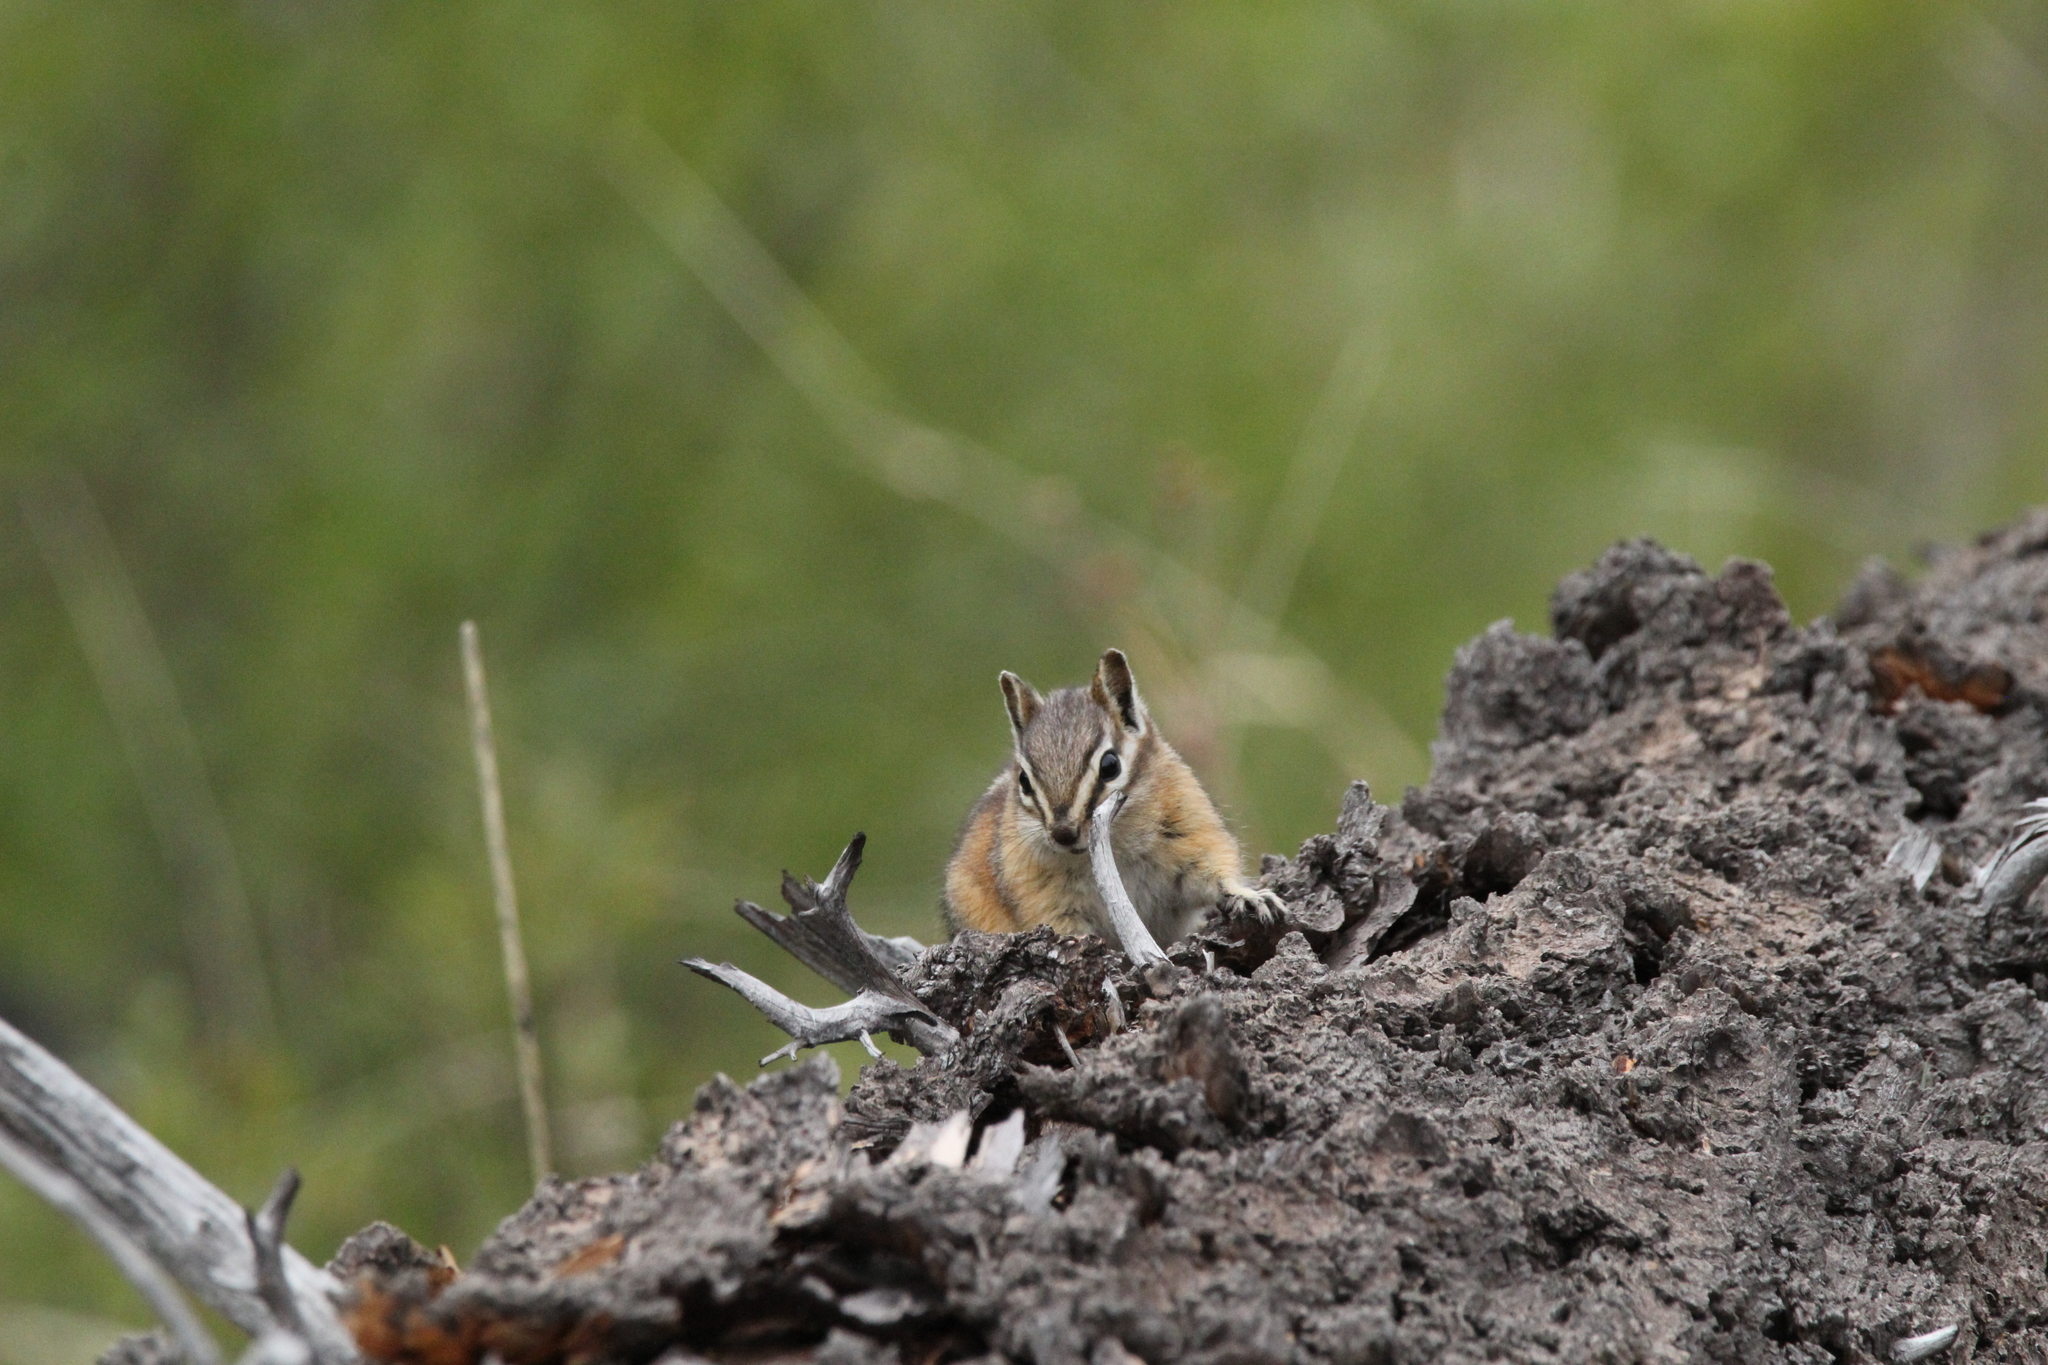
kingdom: Animalia
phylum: Chordata
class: Mammalia
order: Rodentia
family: Sciuridae
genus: Tamias
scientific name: Tamias minimus
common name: Least chipmunk
